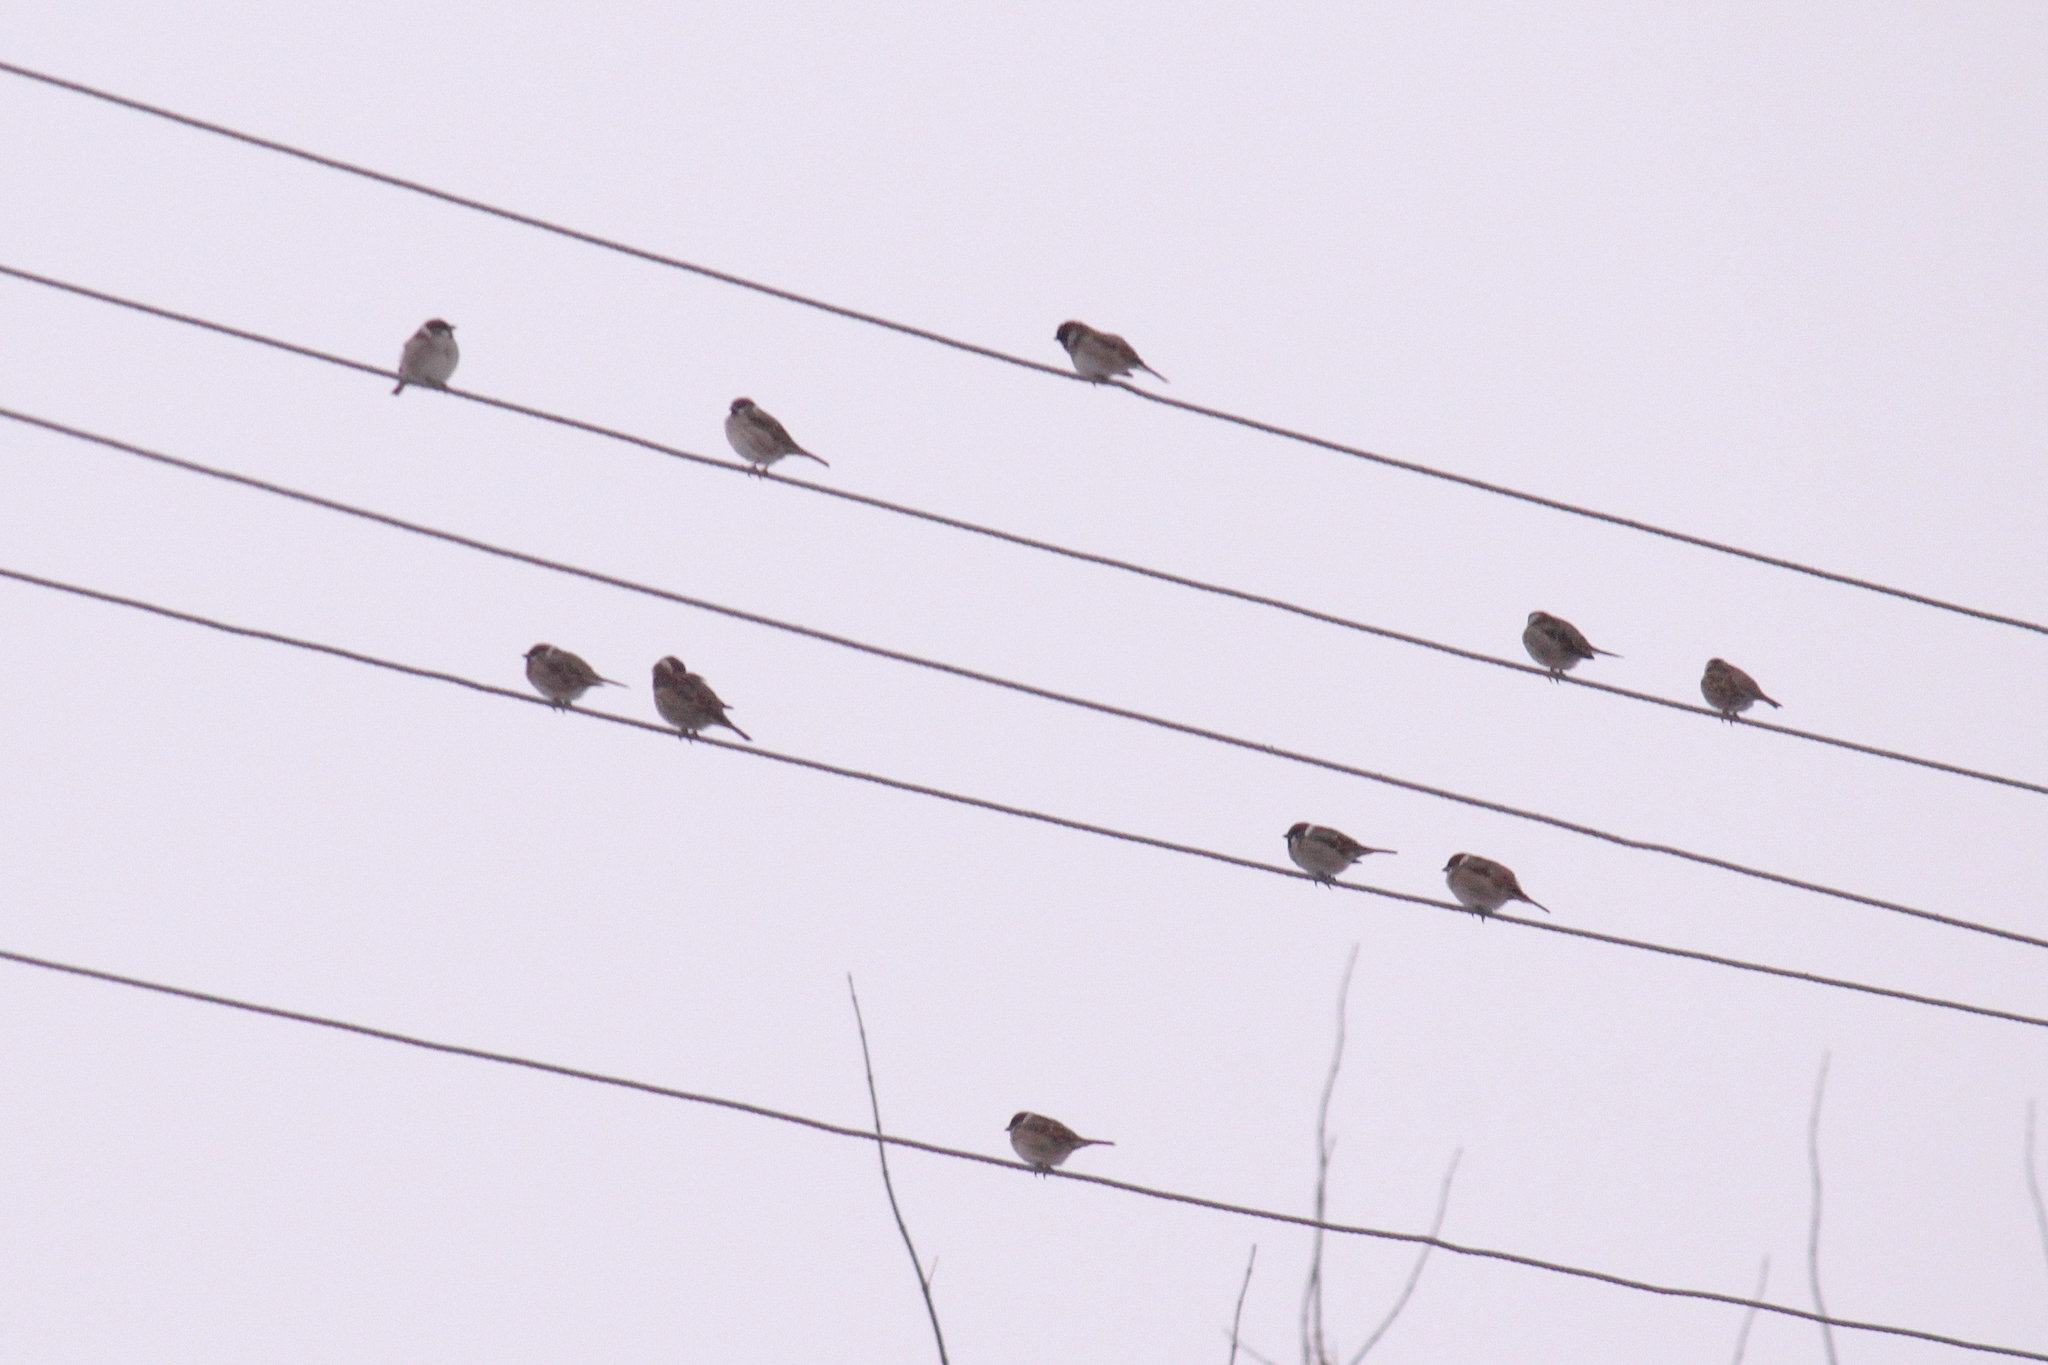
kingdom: Animalia
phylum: Chordata
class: Aves
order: Passeriformes
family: Passeridae
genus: Passer
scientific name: Passer montanus
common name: Eurasian tree sparrow
